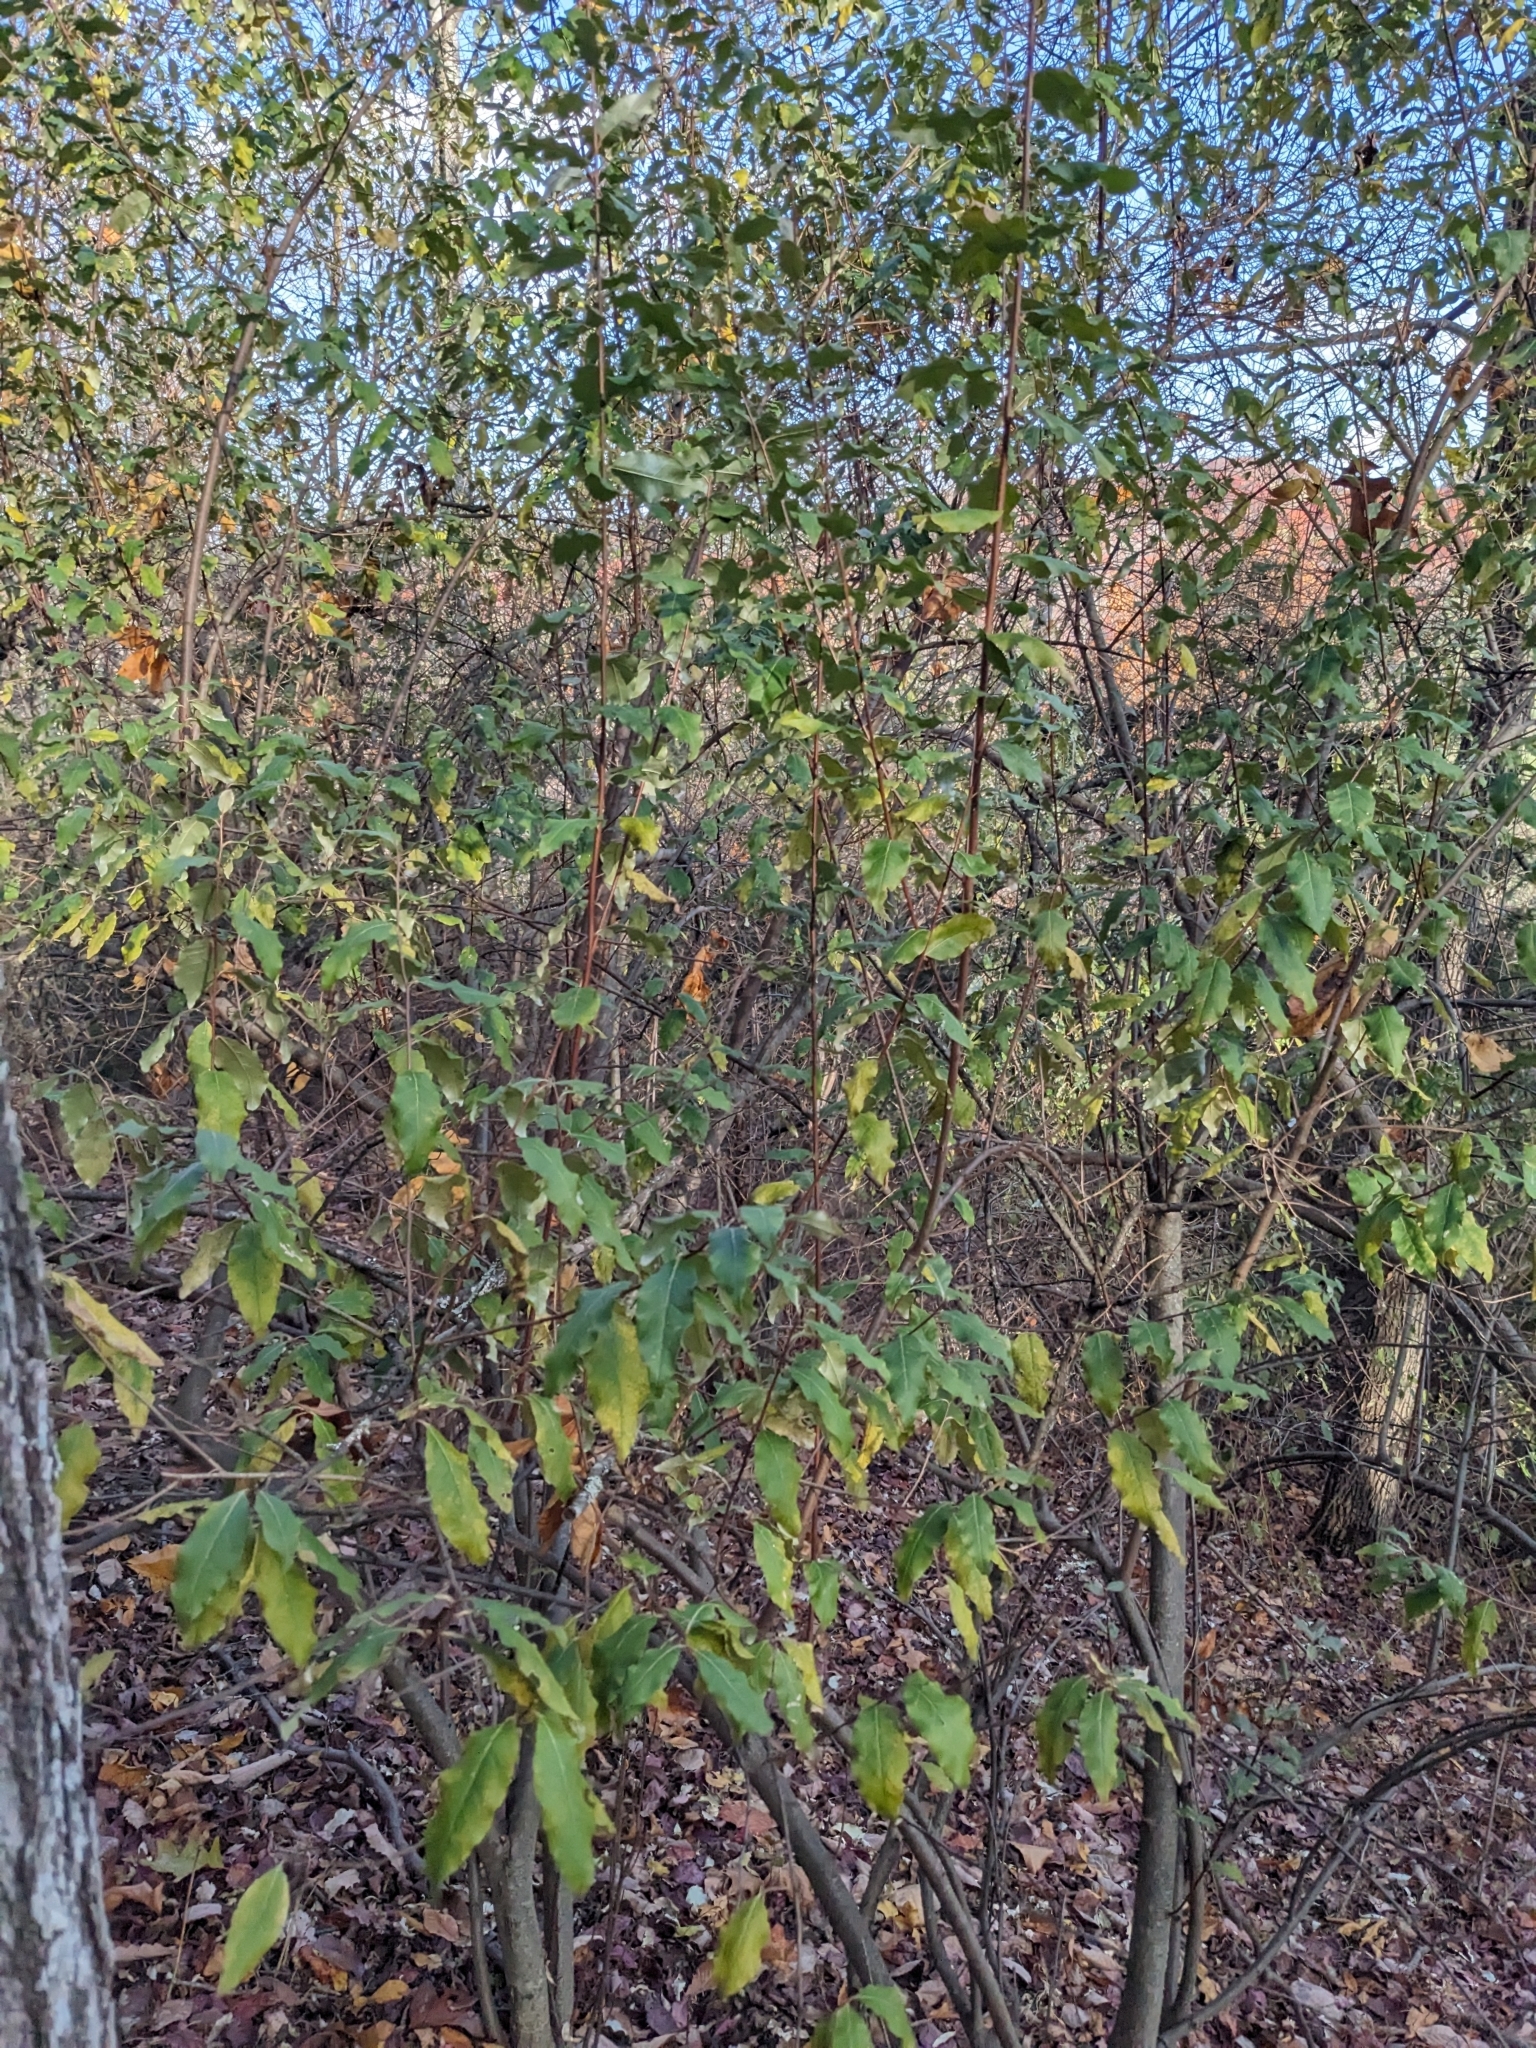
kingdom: Plantae
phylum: Tracheophyta
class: Magnoliopsida
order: Rosales
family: Elaeagnaceae
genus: Elaeagnus
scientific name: Elaeagnus umbellata
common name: Autumn olive
